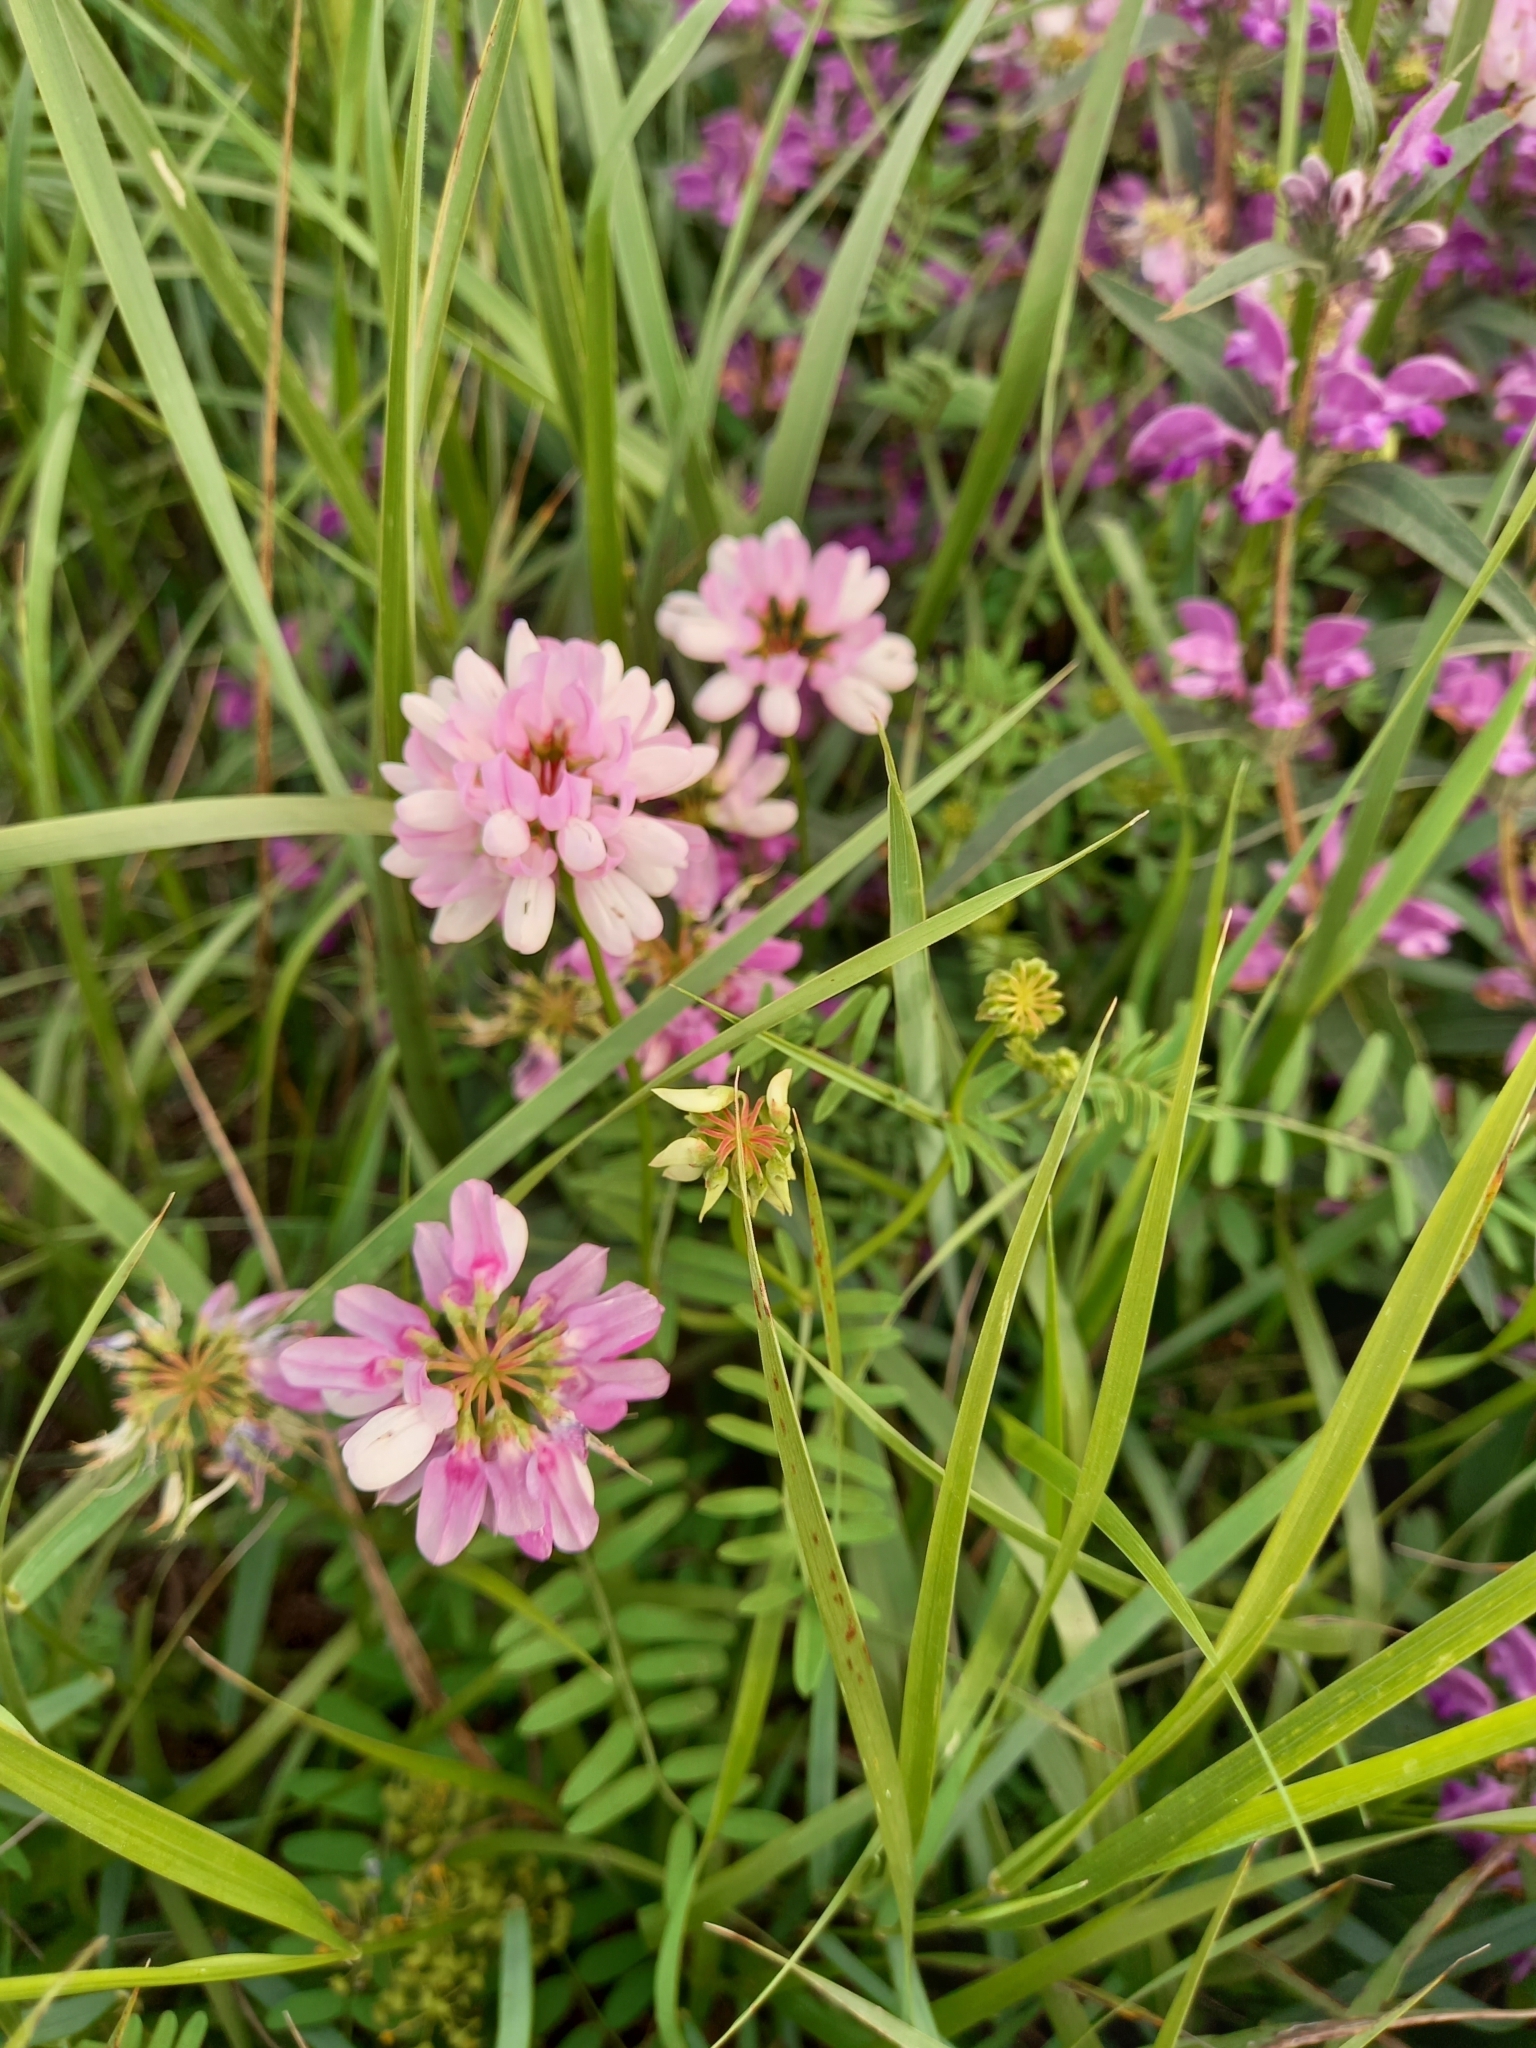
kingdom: Plantae
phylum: Tracheophyta
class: Magnoliopsida
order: Fabales
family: Fabaceae
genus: Coronilla
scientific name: Coronilla varia
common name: Crownvetch
